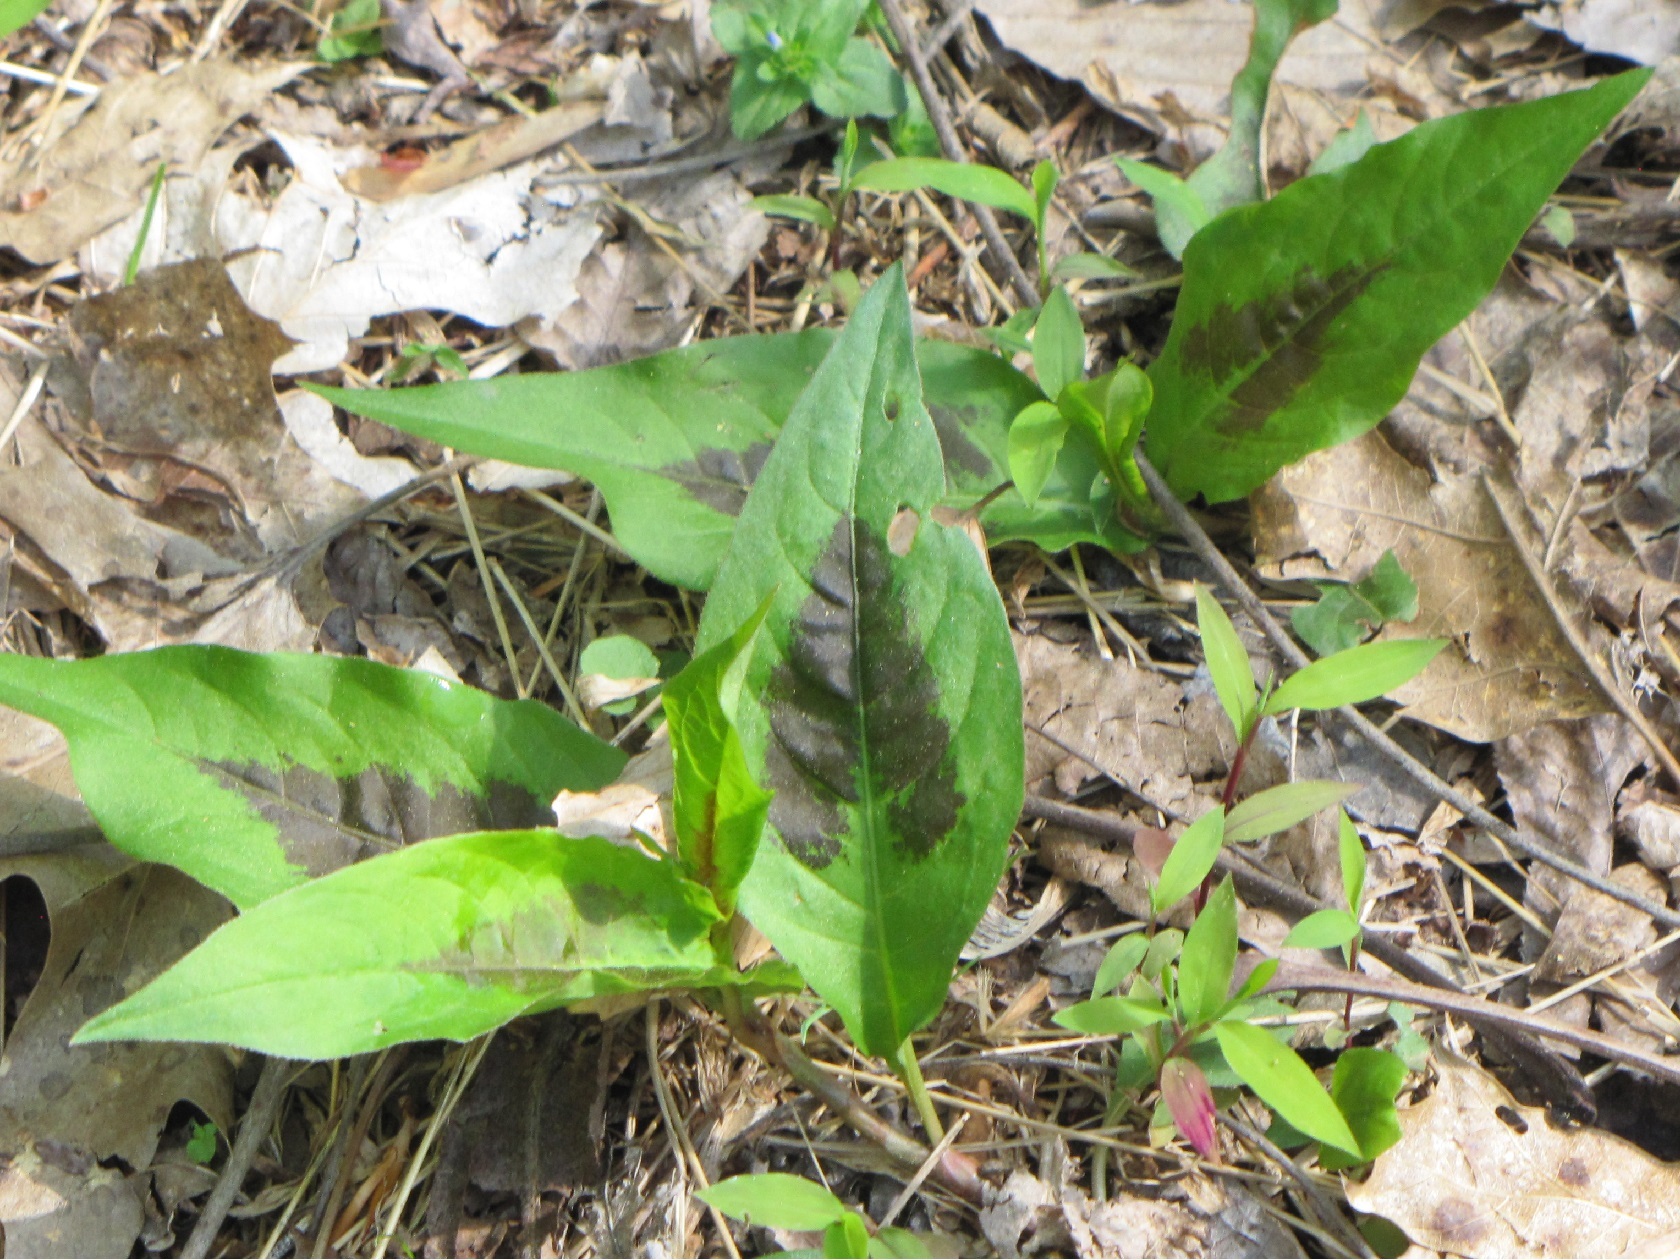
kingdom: Plantae
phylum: Tracheophyta
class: Magnoliopsida
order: Caryophyllales
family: Polygonaceae
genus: Persicaria
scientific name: Persicaria virginiana
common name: Jumpseed
